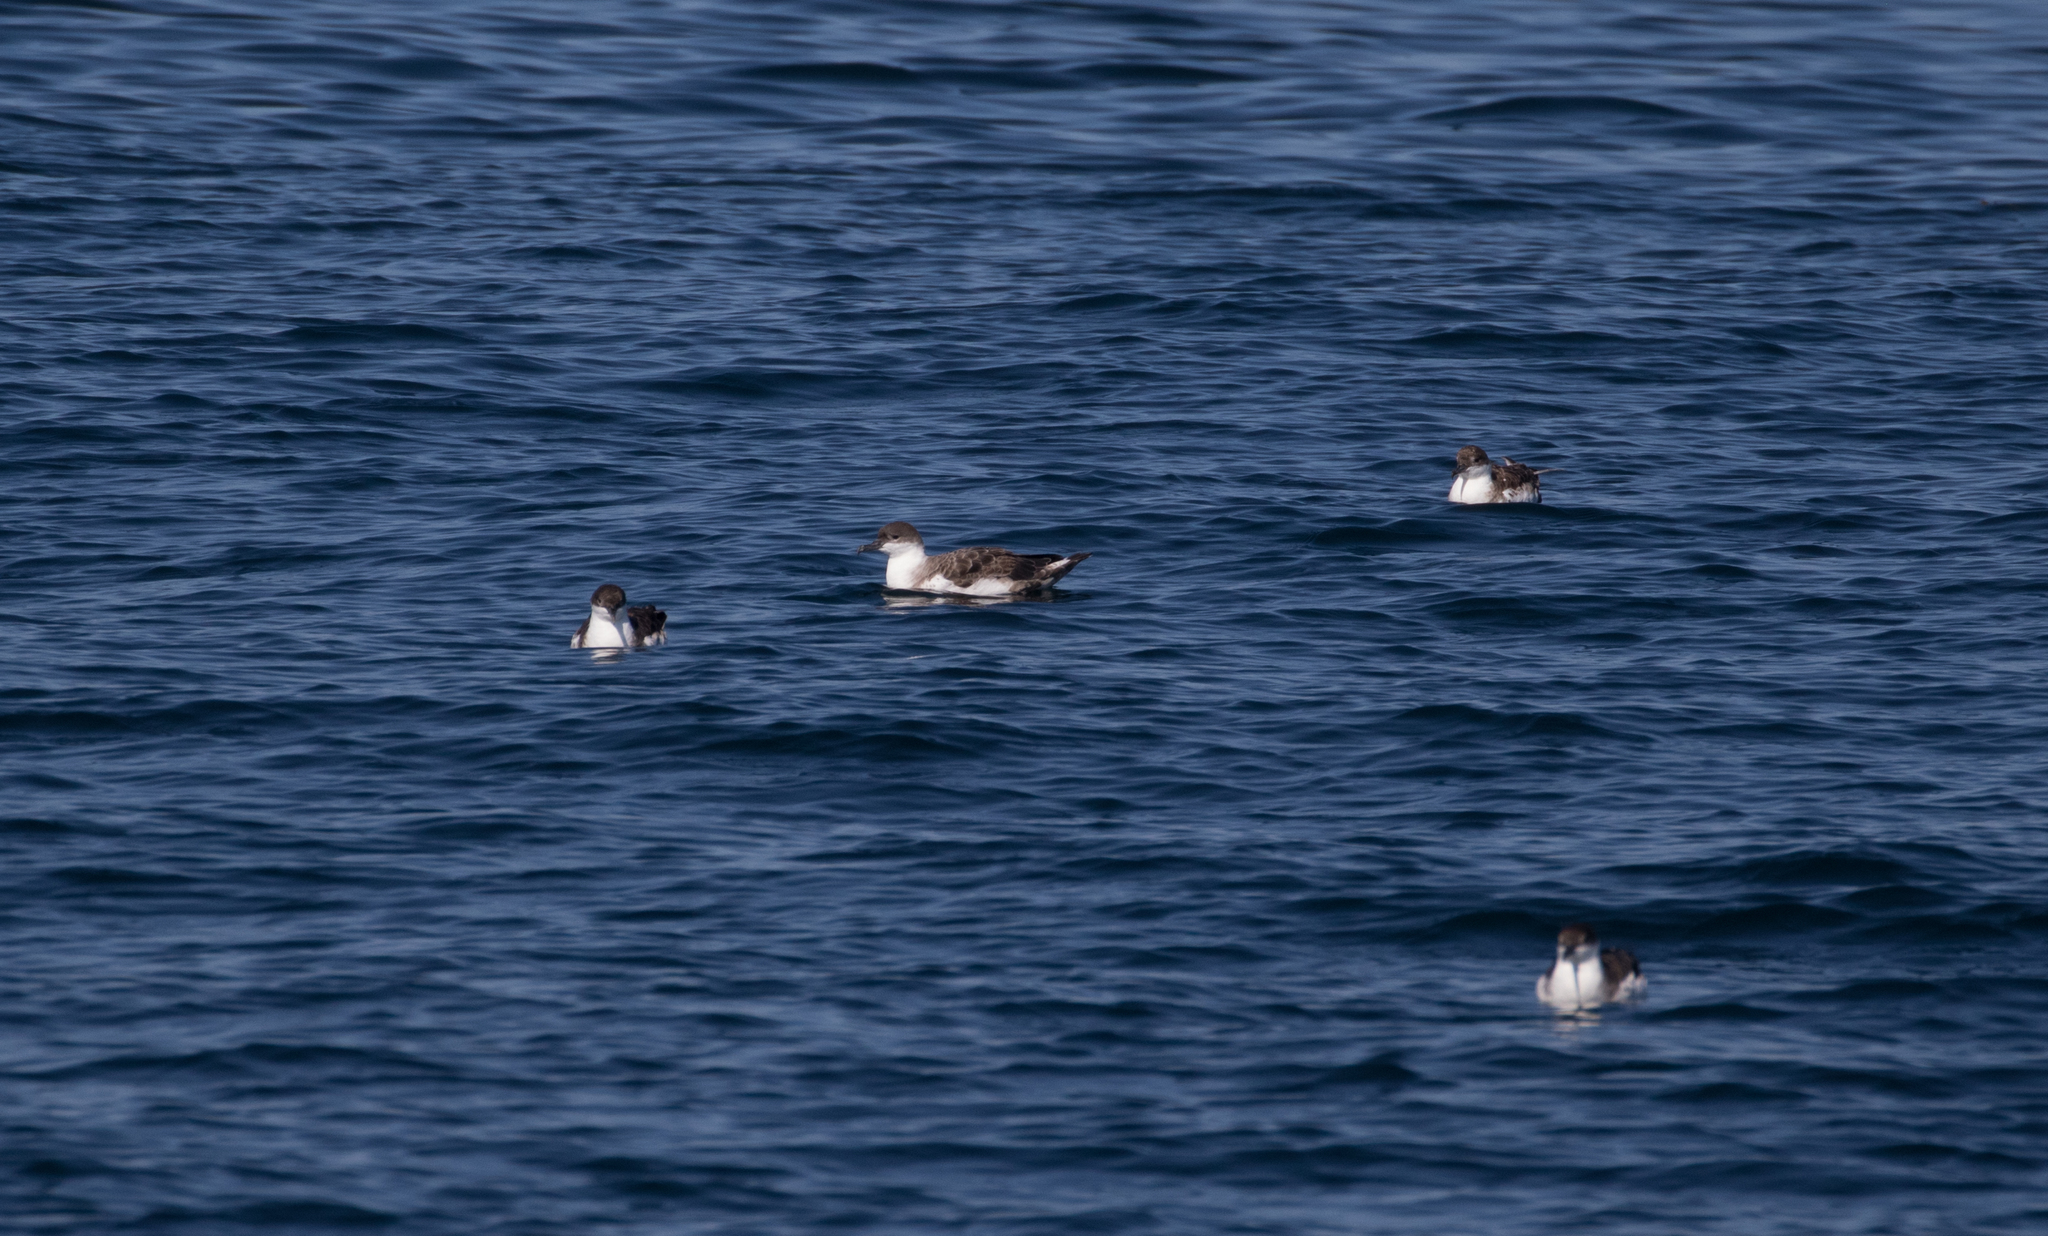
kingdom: Animalia
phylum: Chordata
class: Aves
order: Procellariiformes
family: Procellariidae
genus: Puffinus
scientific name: Puffinus gravis
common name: Great shearwater
